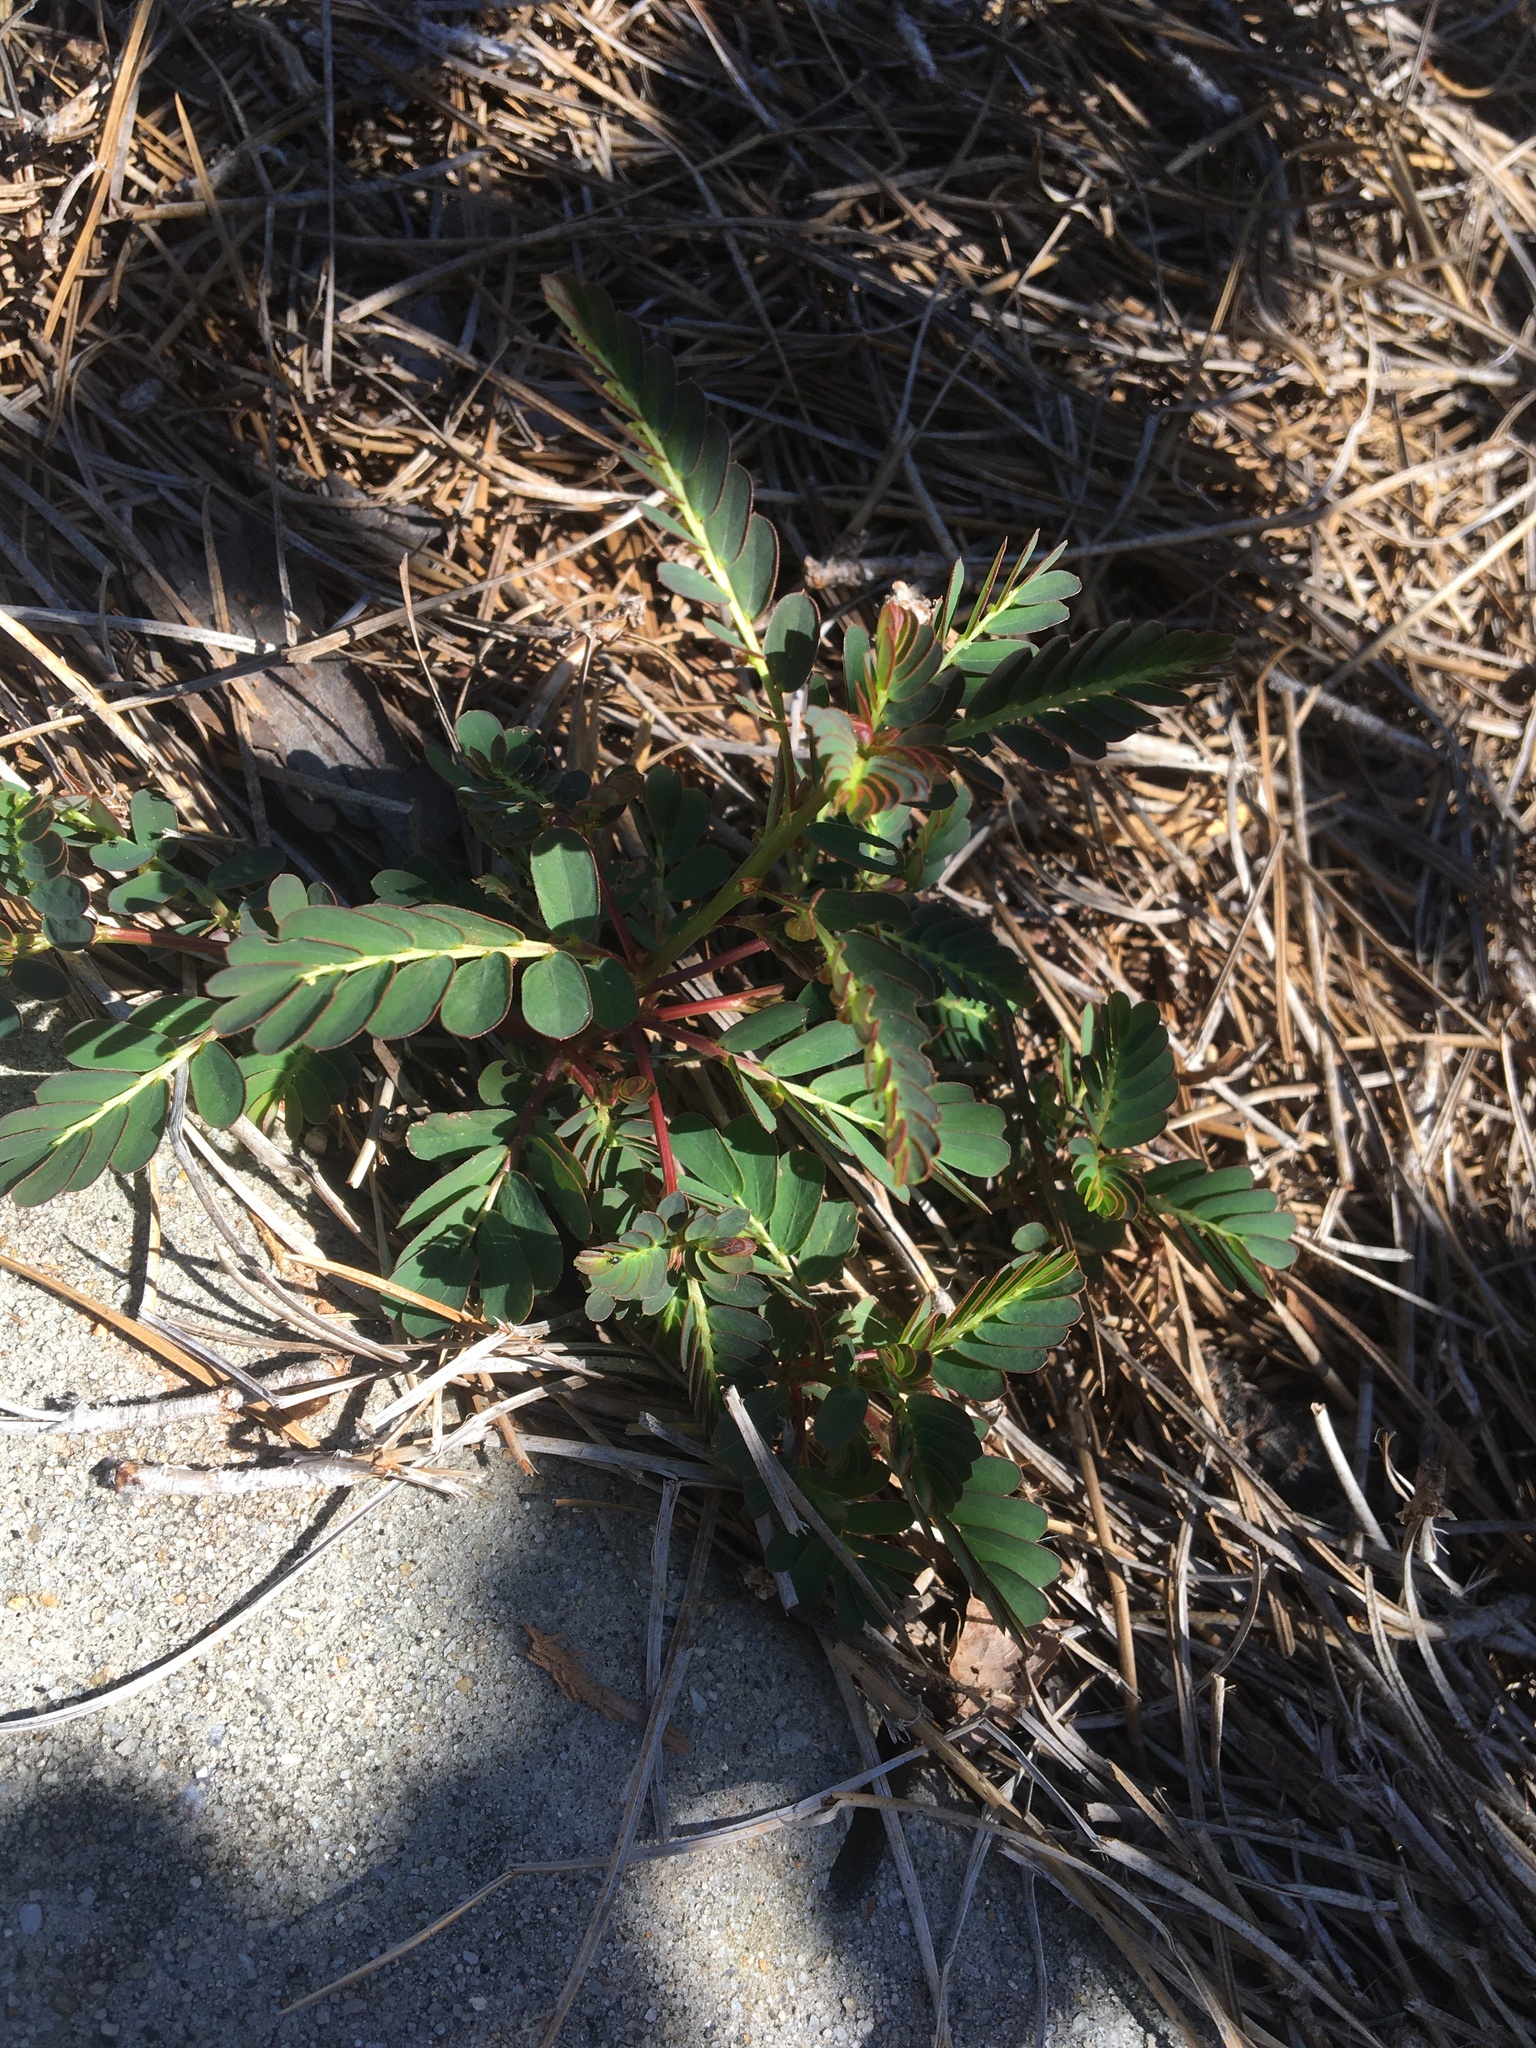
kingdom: Plantae
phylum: Tracheophyta
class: Magnoliopsida
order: Malpighiales
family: Phyllanthaceae
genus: Phyllanthus
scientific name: Phyllanthus urinaria
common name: Chamber bitter
